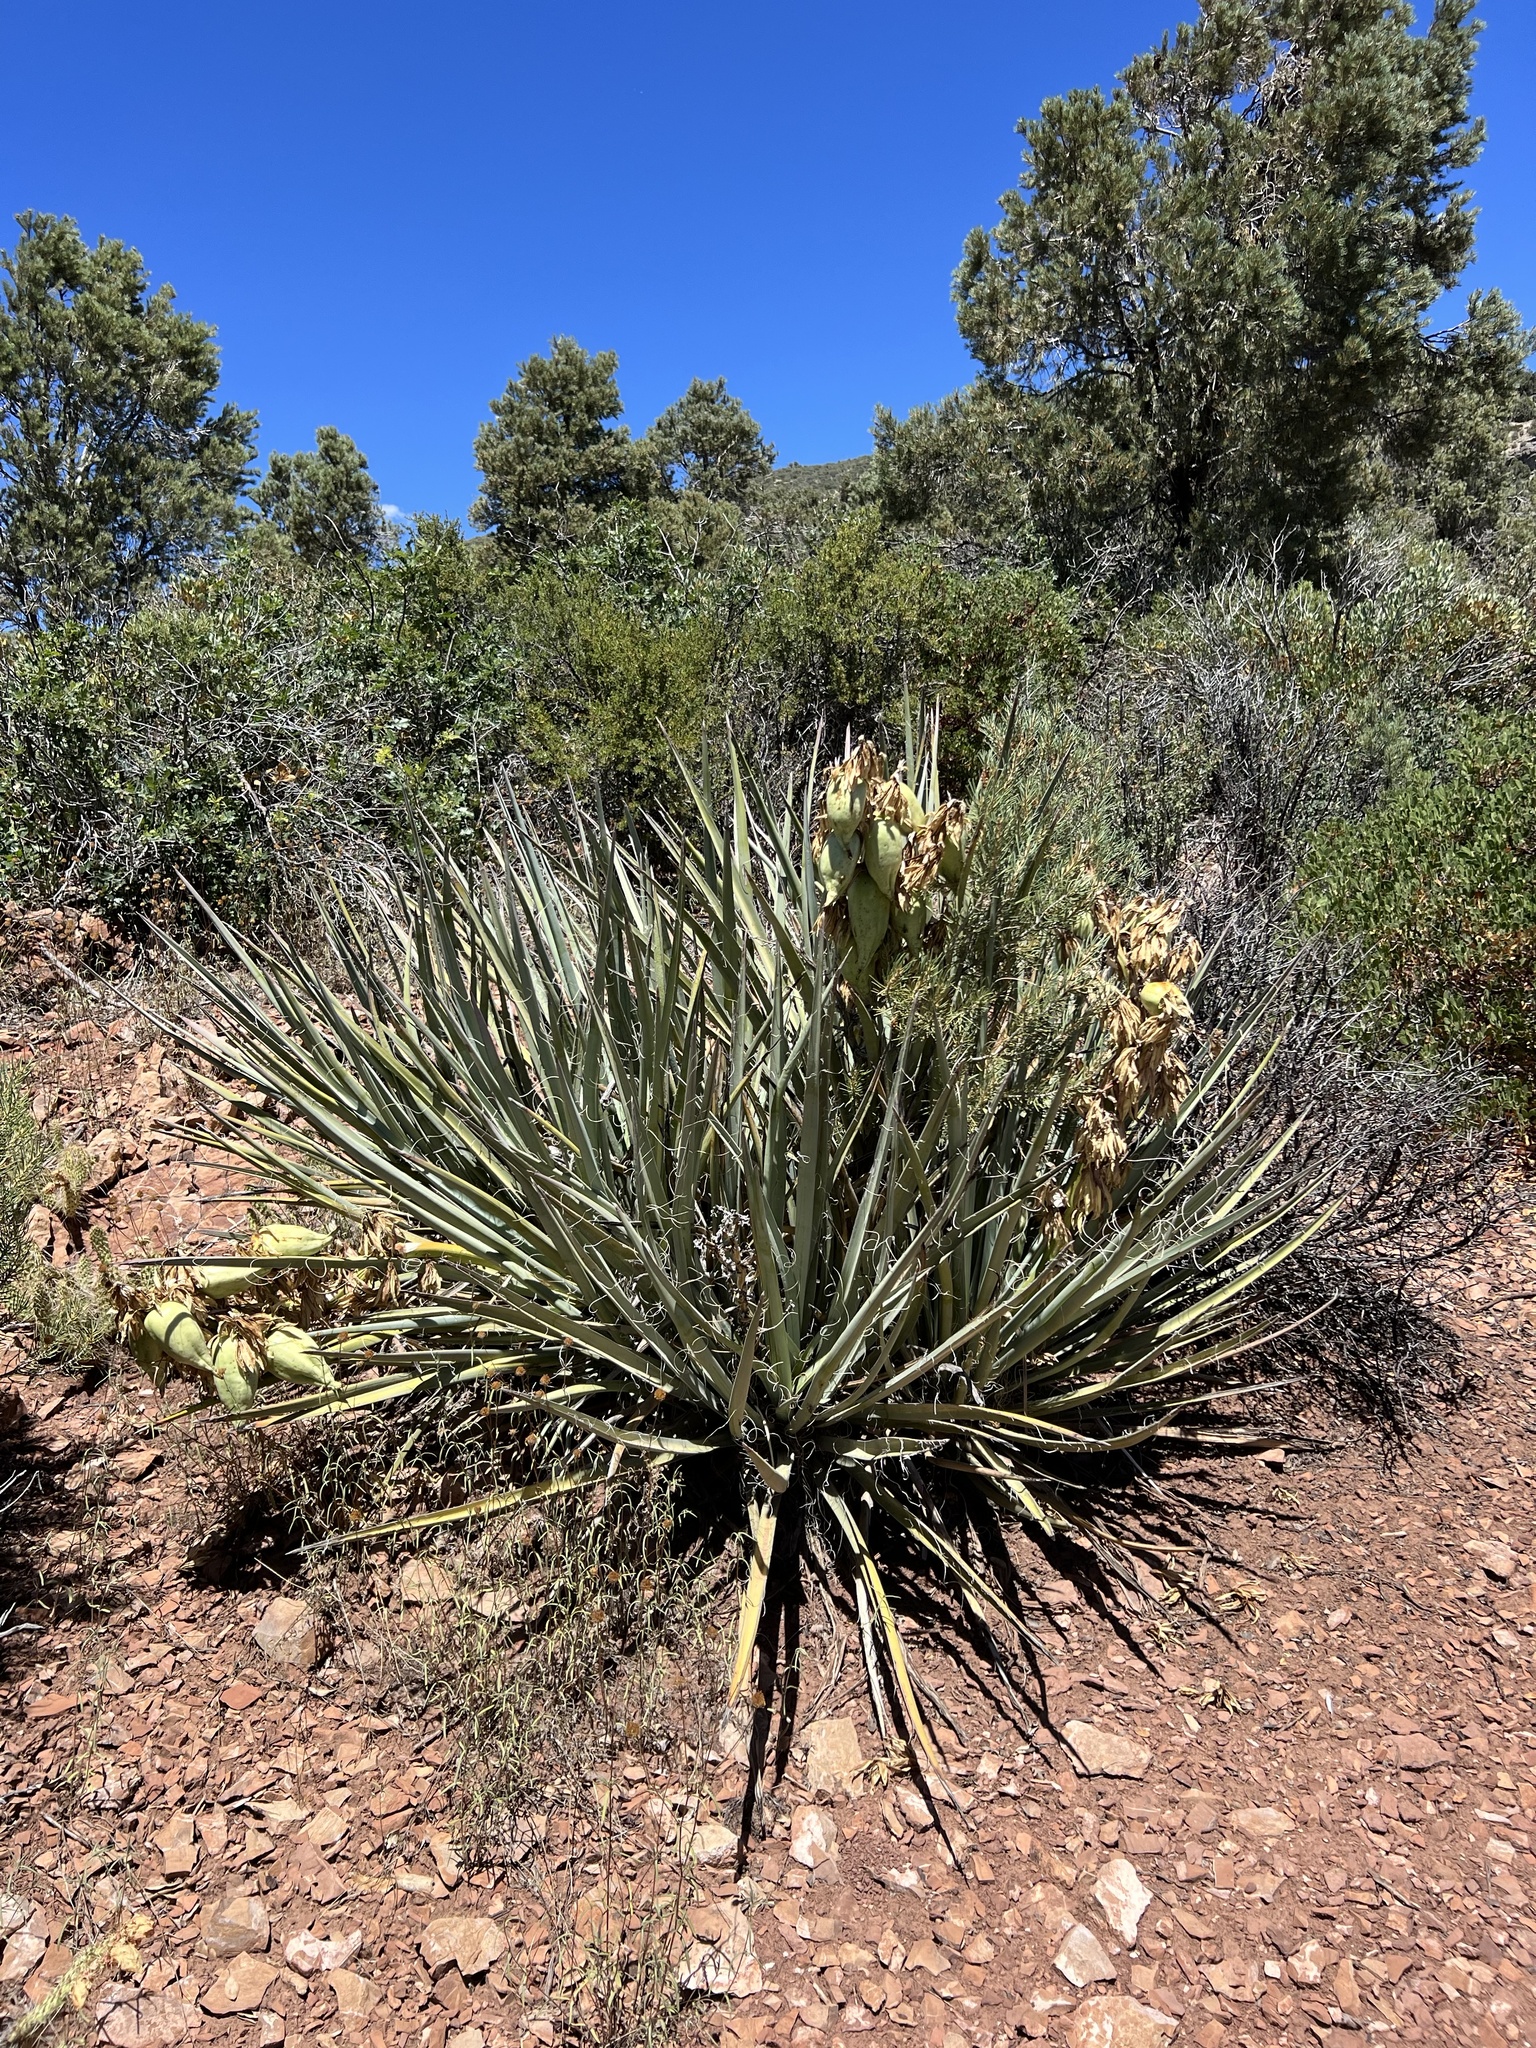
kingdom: Plantae
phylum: Tracheophyta
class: Liliopsida
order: Asparagales
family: Asparagaceae
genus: Yucca
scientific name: Yucca baccata
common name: Banana yucca
